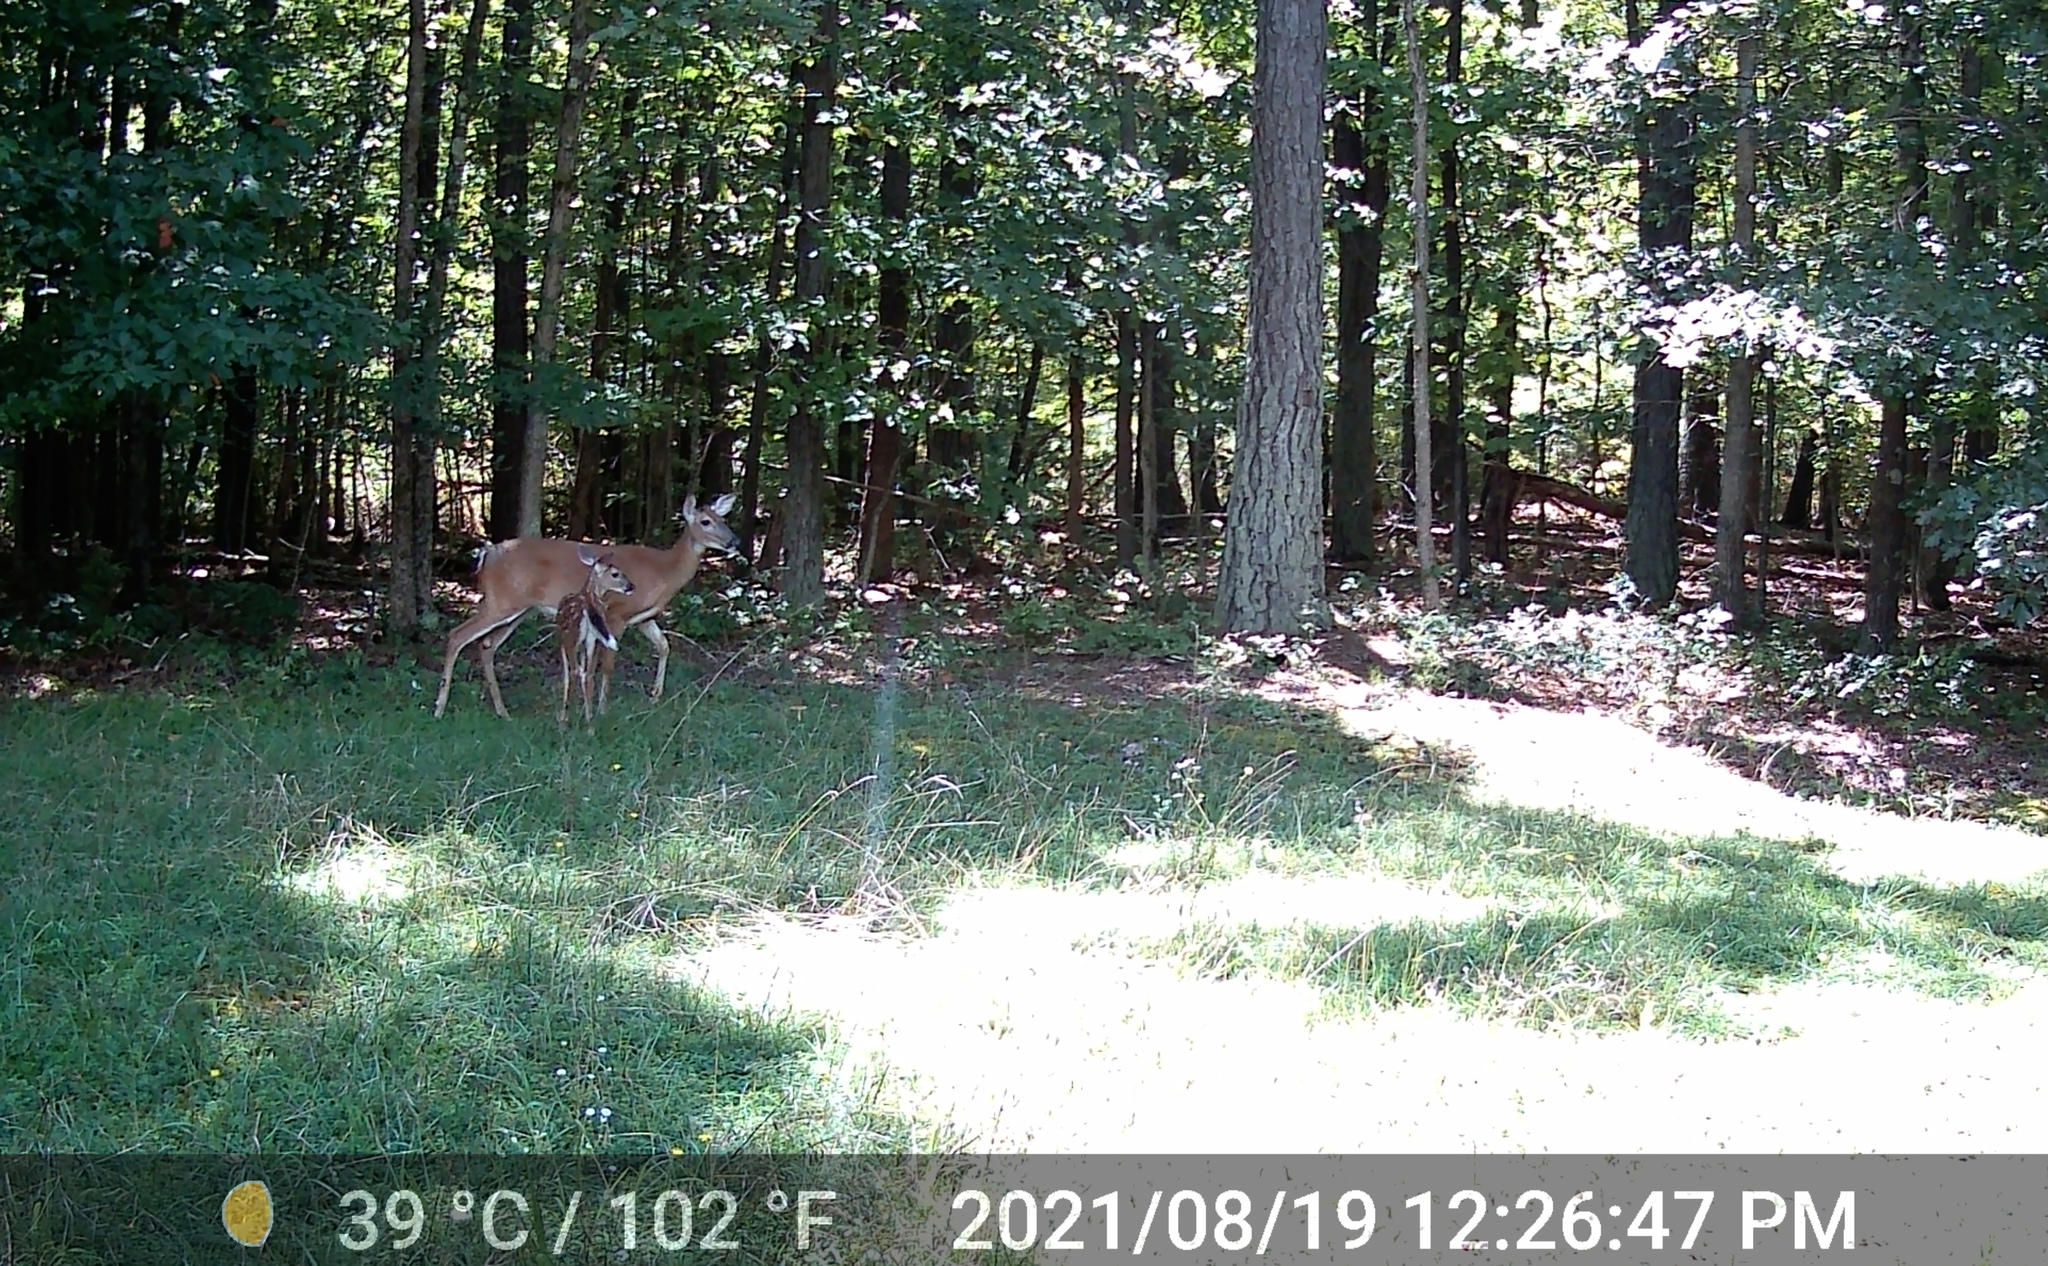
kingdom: Animalia
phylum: Chordata
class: Mammalia
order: Artiodactyla
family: Cervidae
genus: Odocoileus
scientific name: Odocoileus virginianus
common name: White-tailed deer
